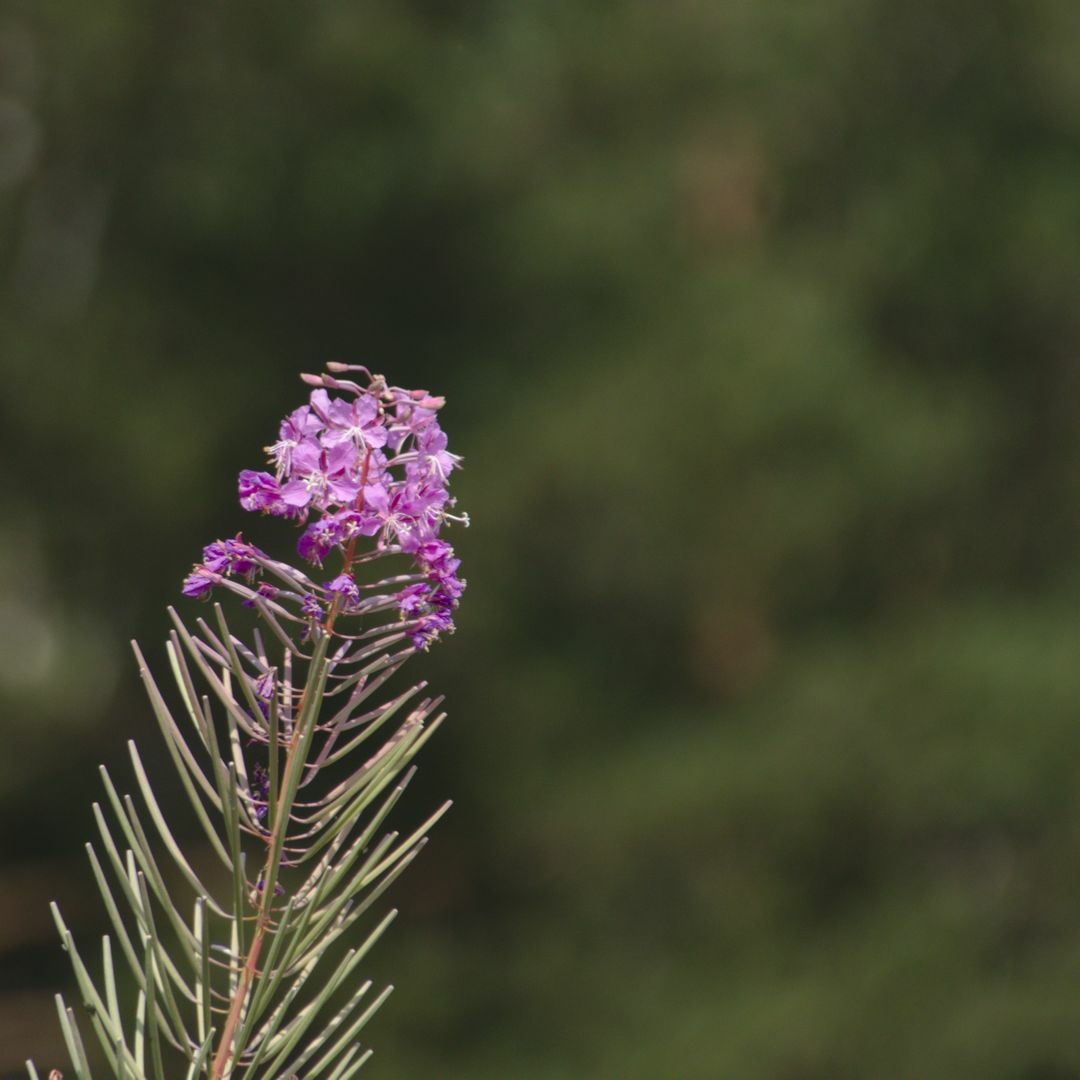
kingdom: Plantae
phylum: Tracheophyta
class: Magnoliopsida
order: Myrtales
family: Onagraceae
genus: Chamaenerion
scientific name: Chamaenerion angustifolium
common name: Fireweed
